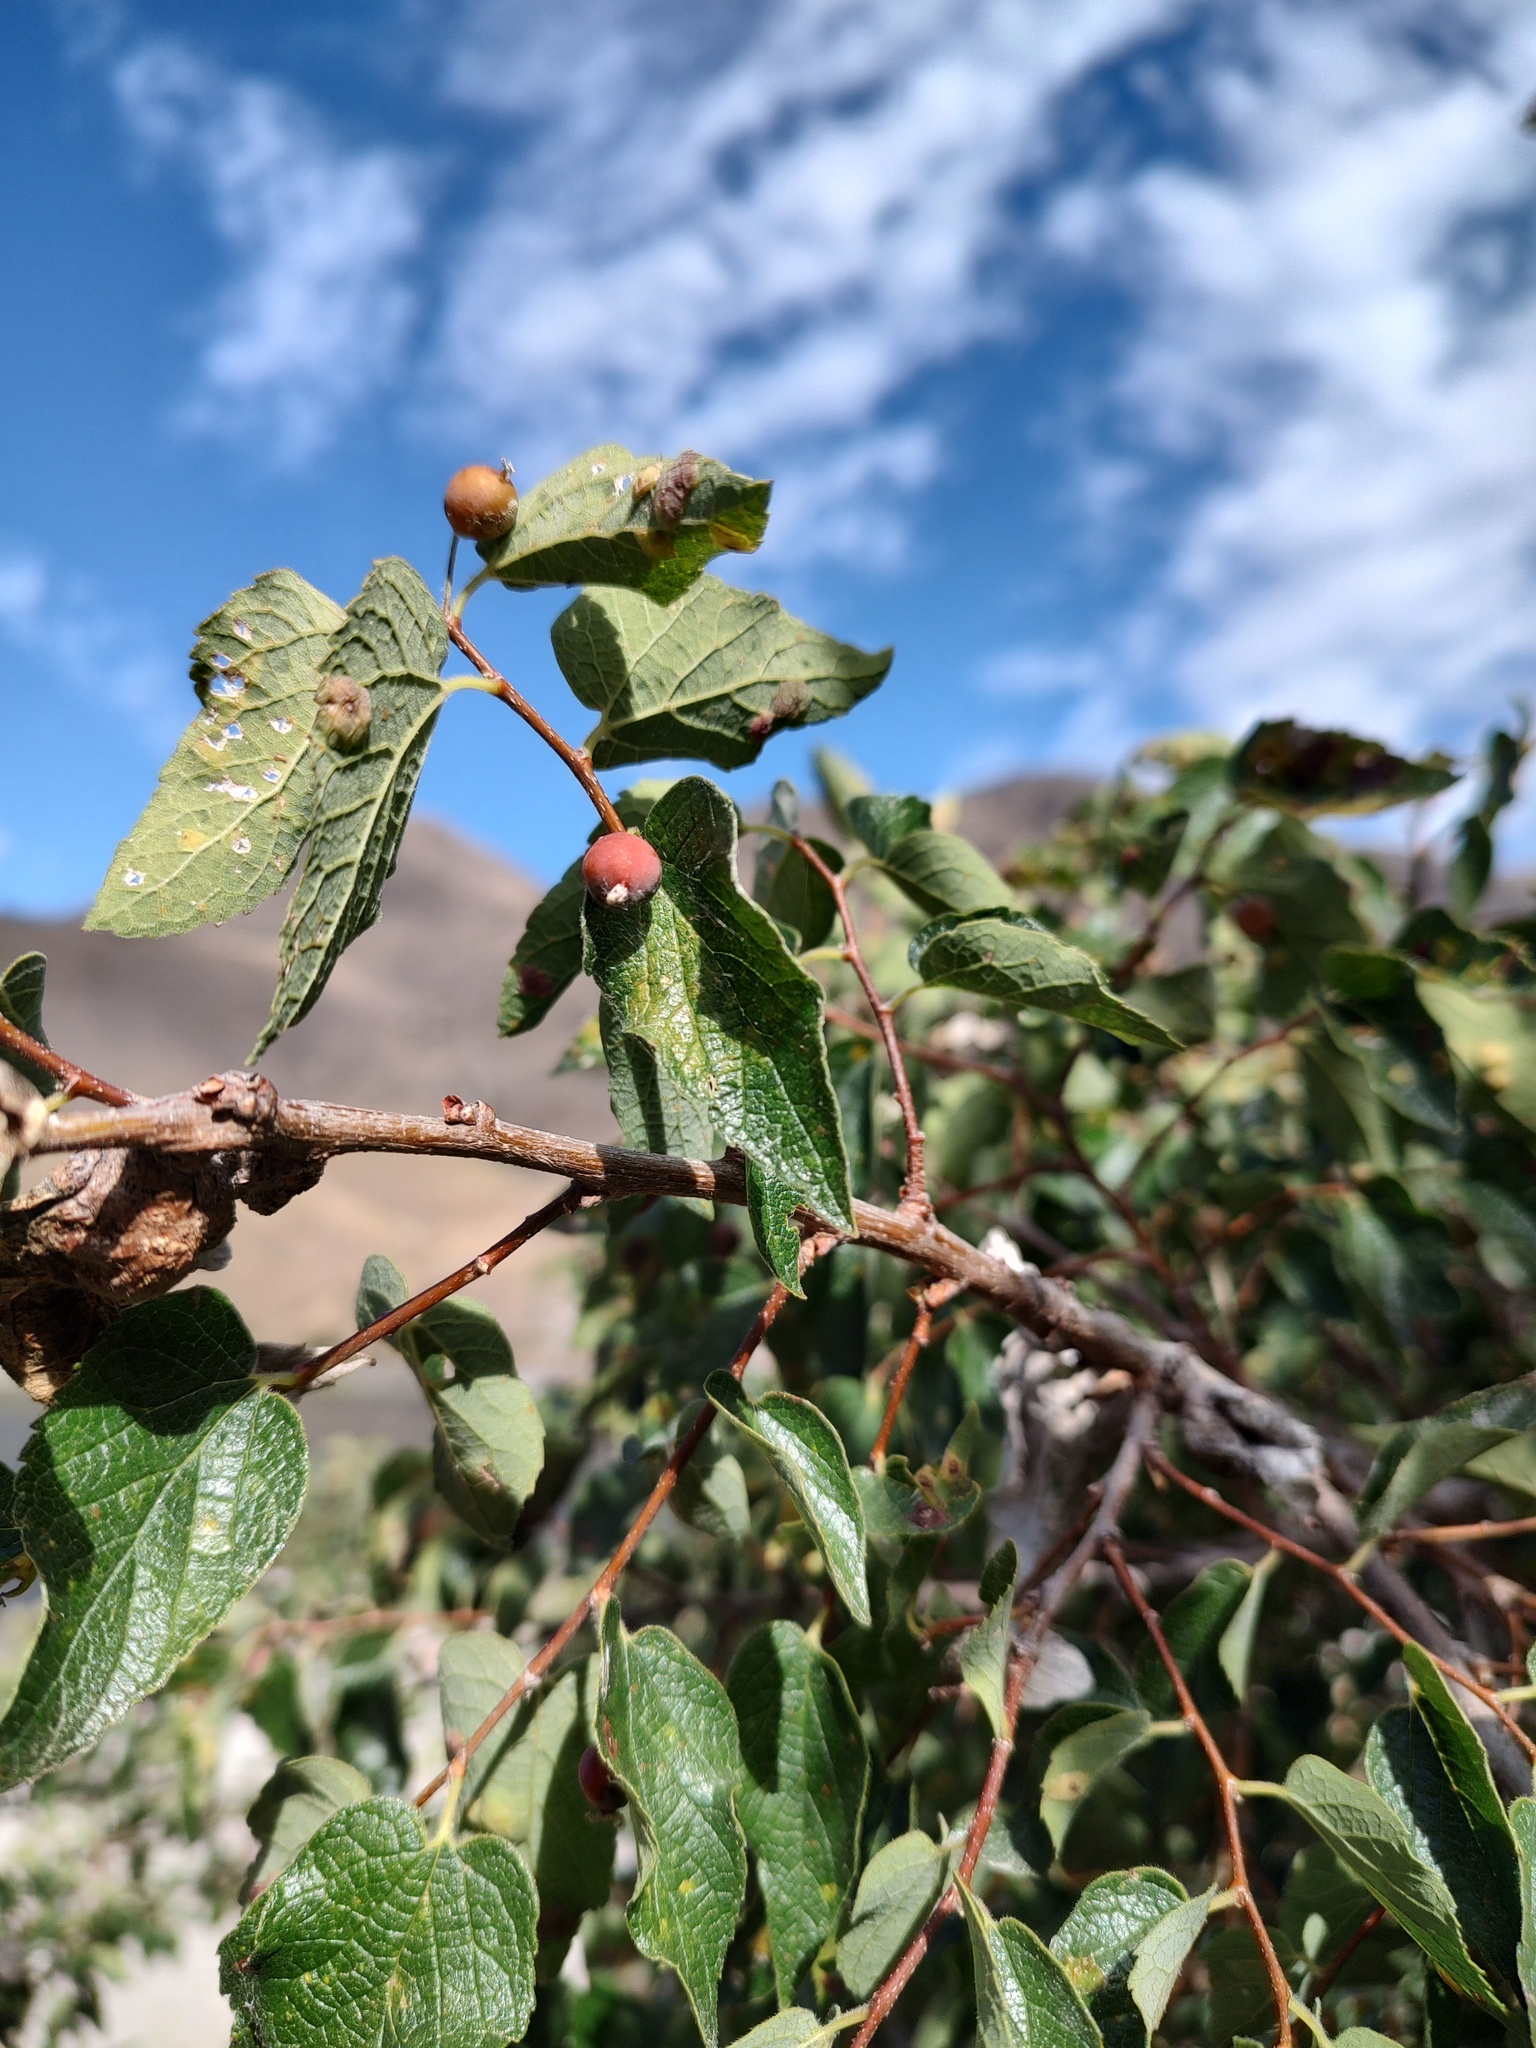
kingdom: Plantae
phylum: Tracheophyta
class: Magnoliopsida
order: Rosales
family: Cannabaceae
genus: Celtis
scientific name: Celtis reticulata
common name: Netleaf hackberry
